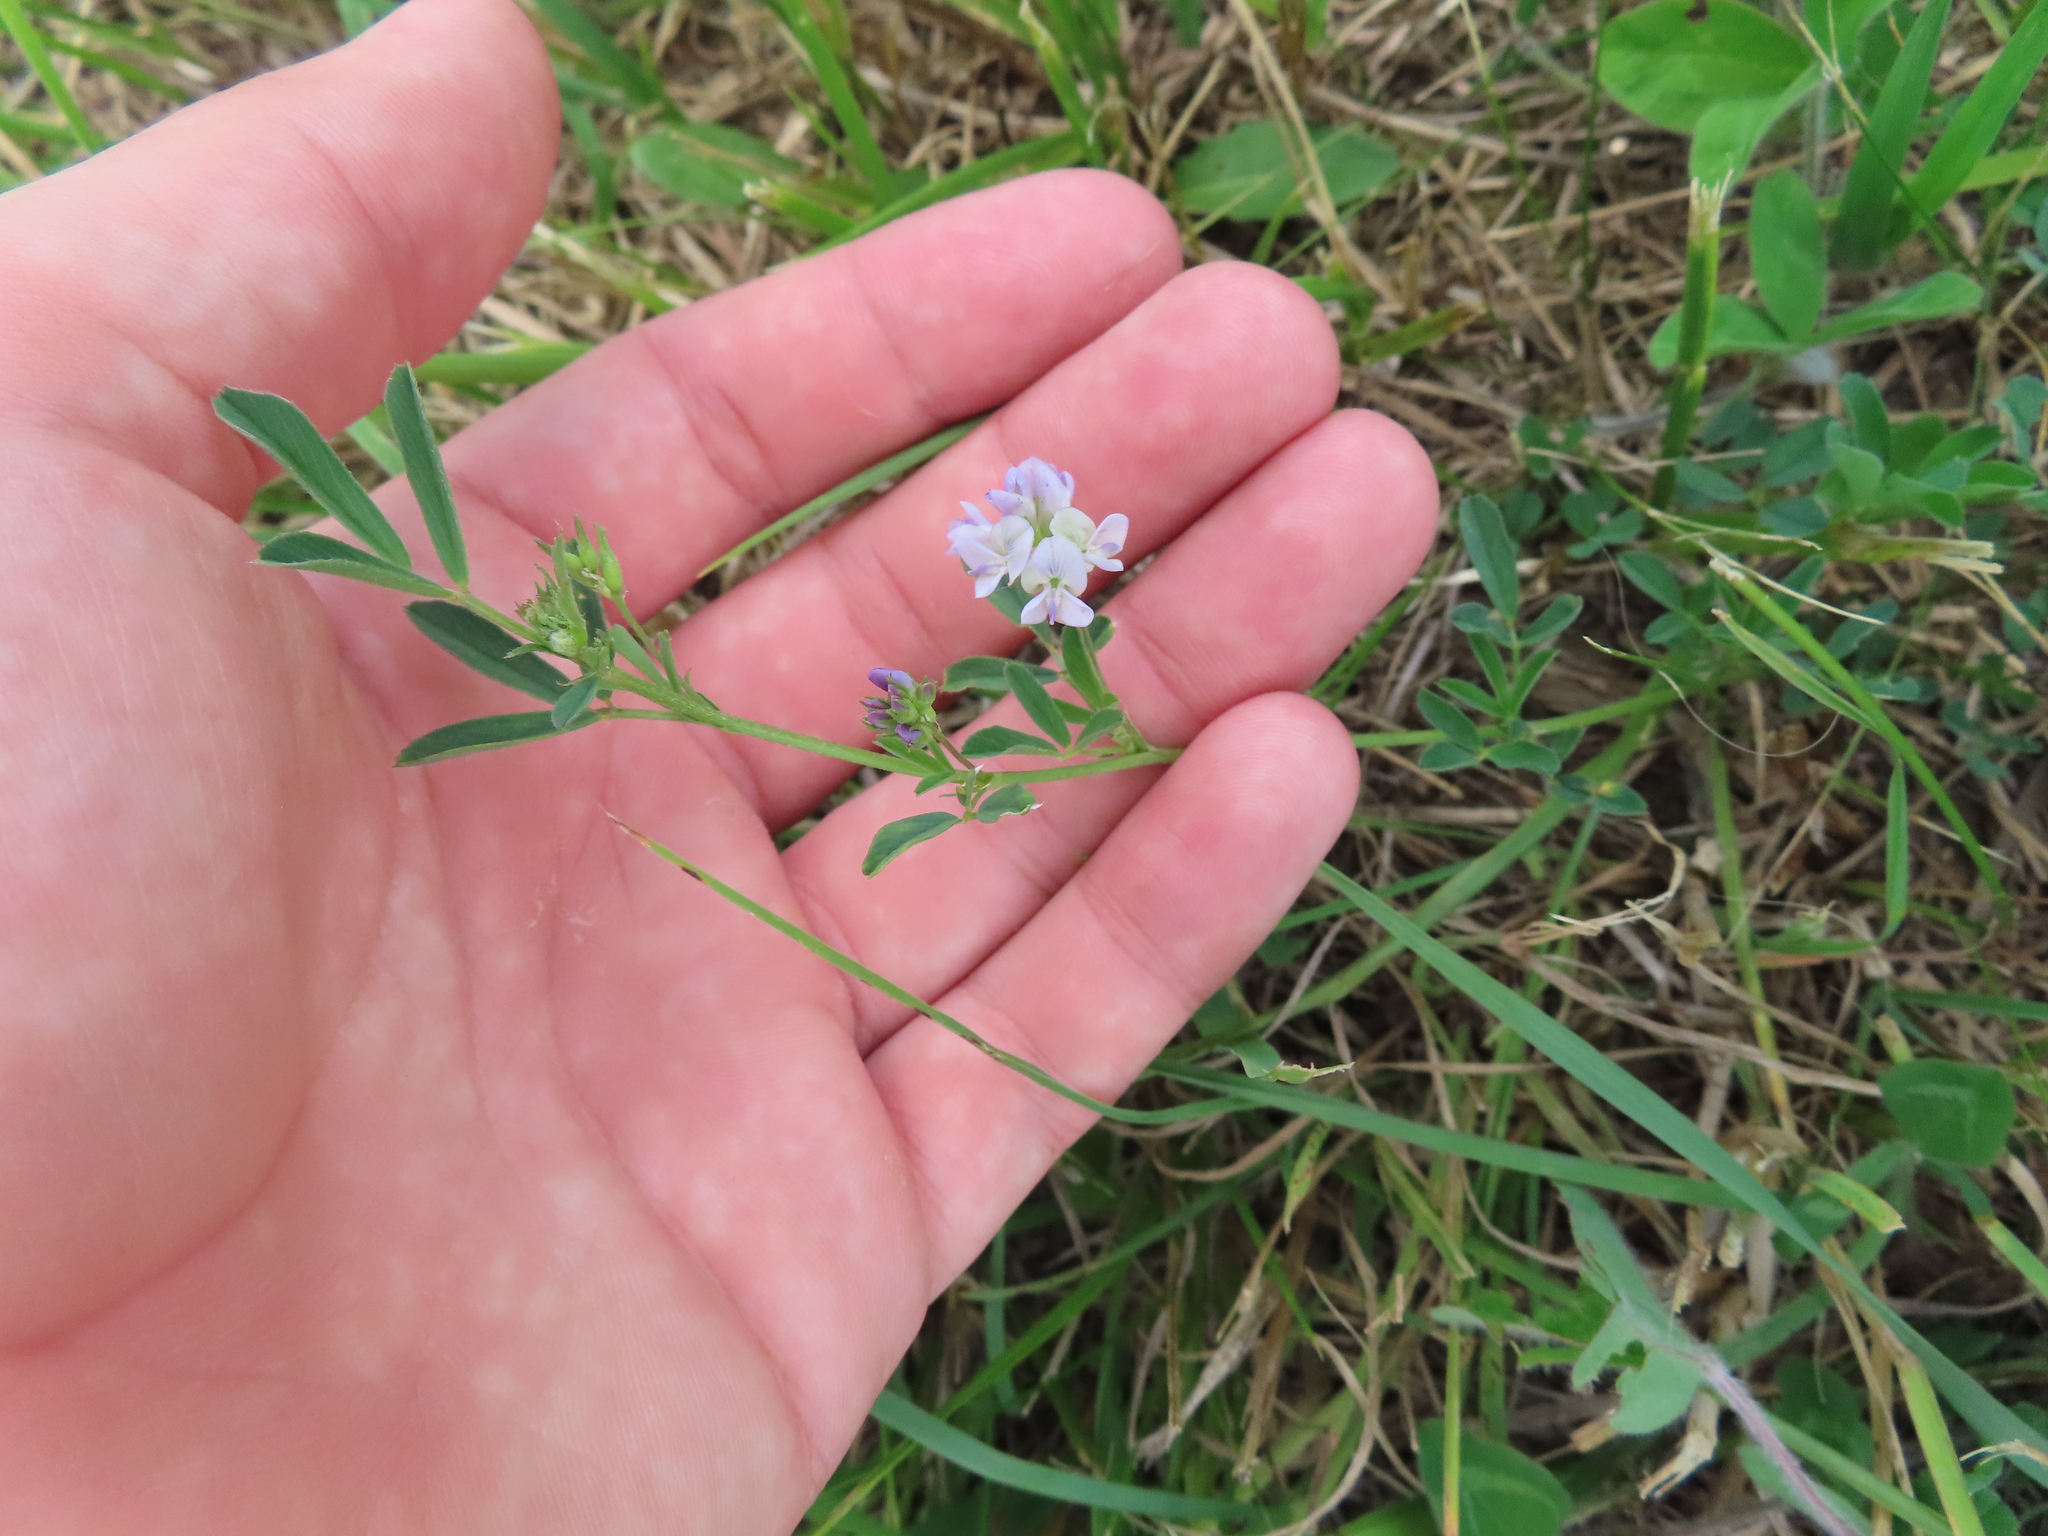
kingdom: Plantae
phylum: Tracheophyta
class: Magnoliopsida
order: Fabales
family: Fabaceae
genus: Medicago
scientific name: Medicago sativa
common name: Alfalfa
